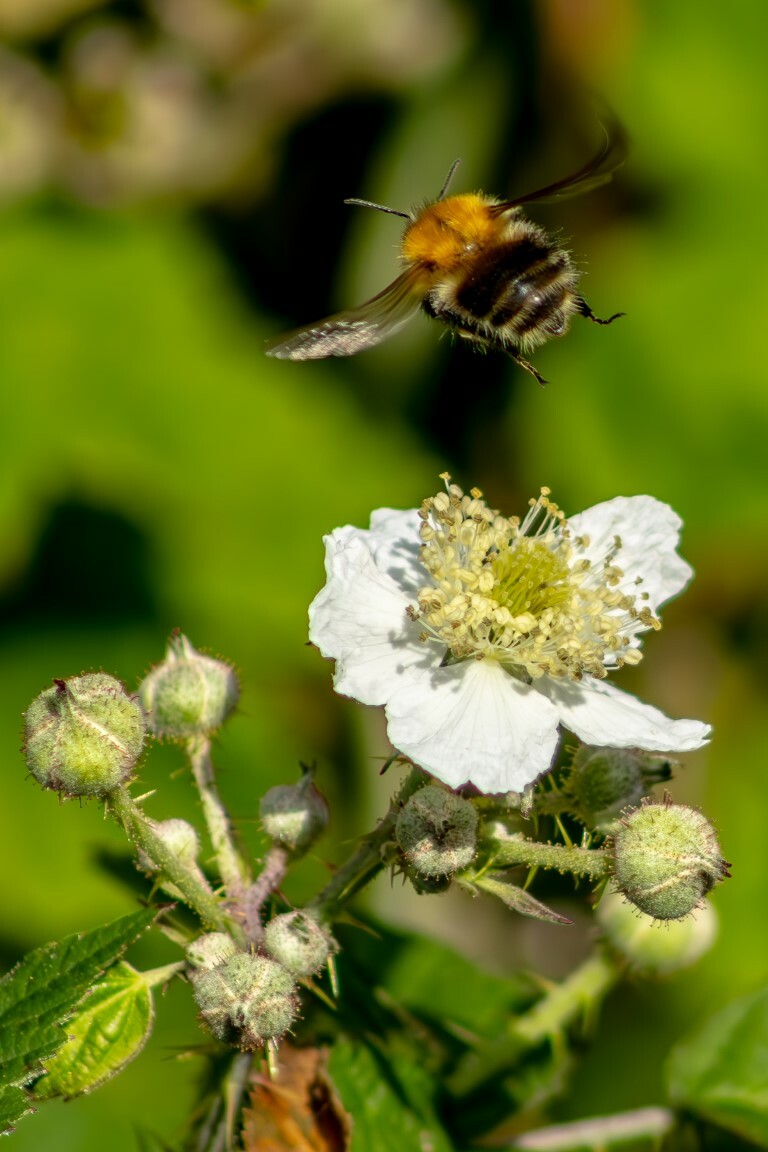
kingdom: Animalia
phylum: Arthropoda
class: Insecta
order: Hymenoptera
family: Apidae
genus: Bombus
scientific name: Bombus pascuorum
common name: Common carder bee
